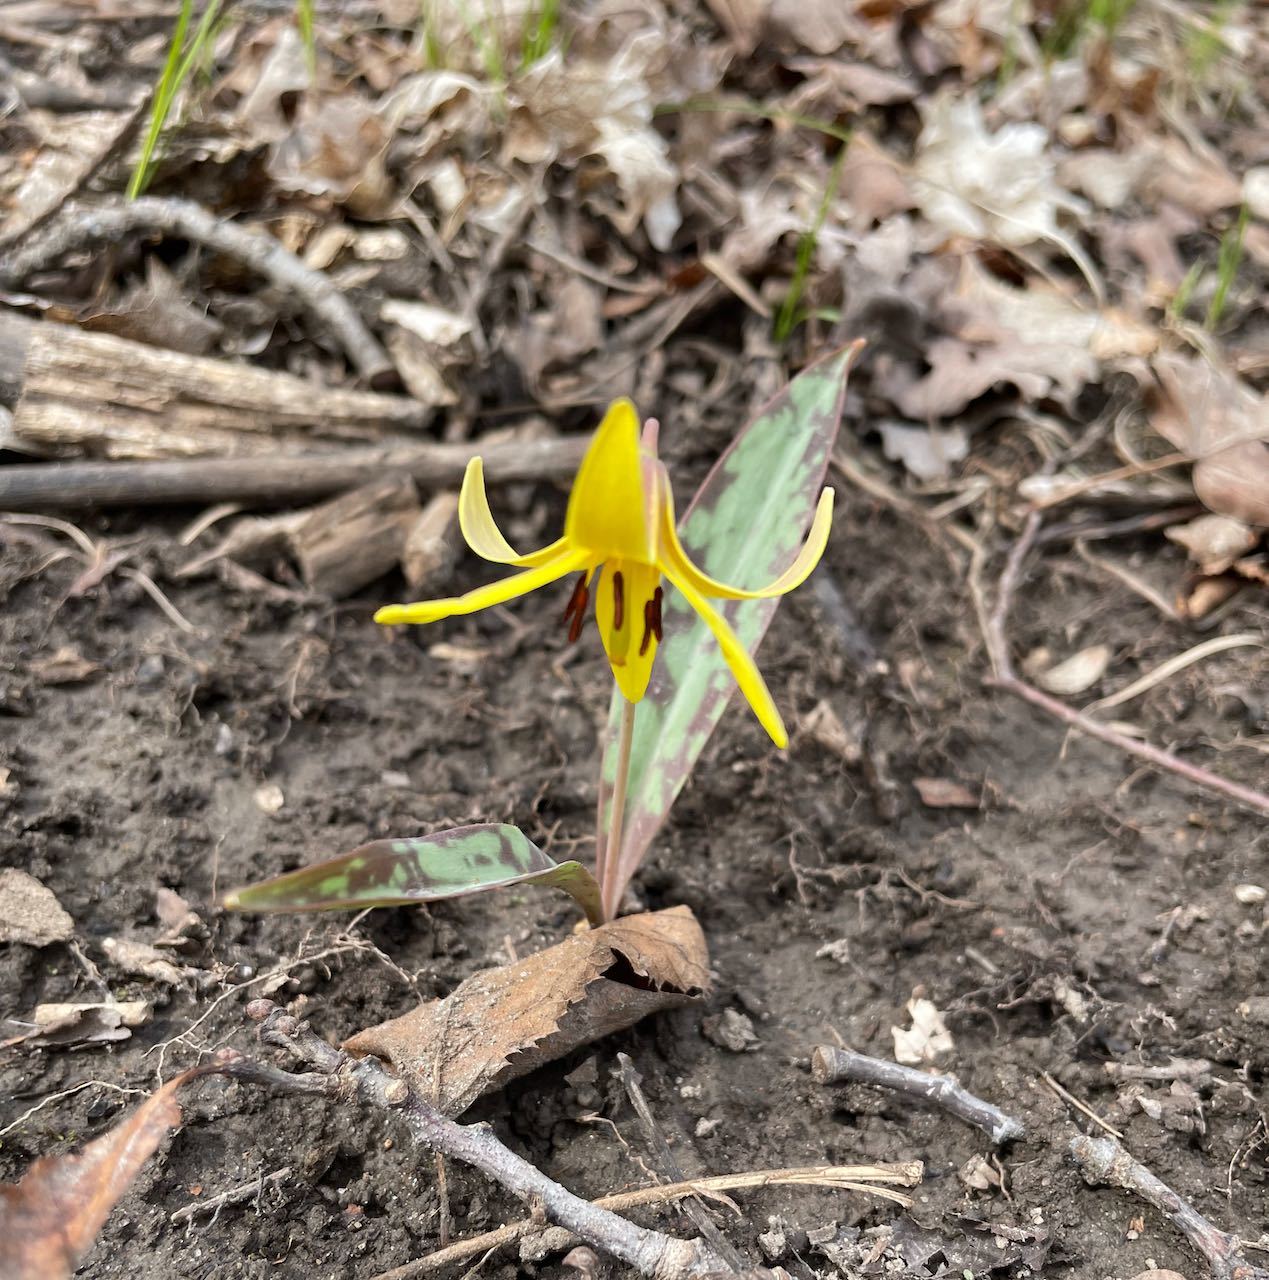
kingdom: Plantae
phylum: Tracheophyta
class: Liliopsida
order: Liliales
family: Liliaceae
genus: Erythronium
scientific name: Erythronium americanum
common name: Yellow adder's-tongue
